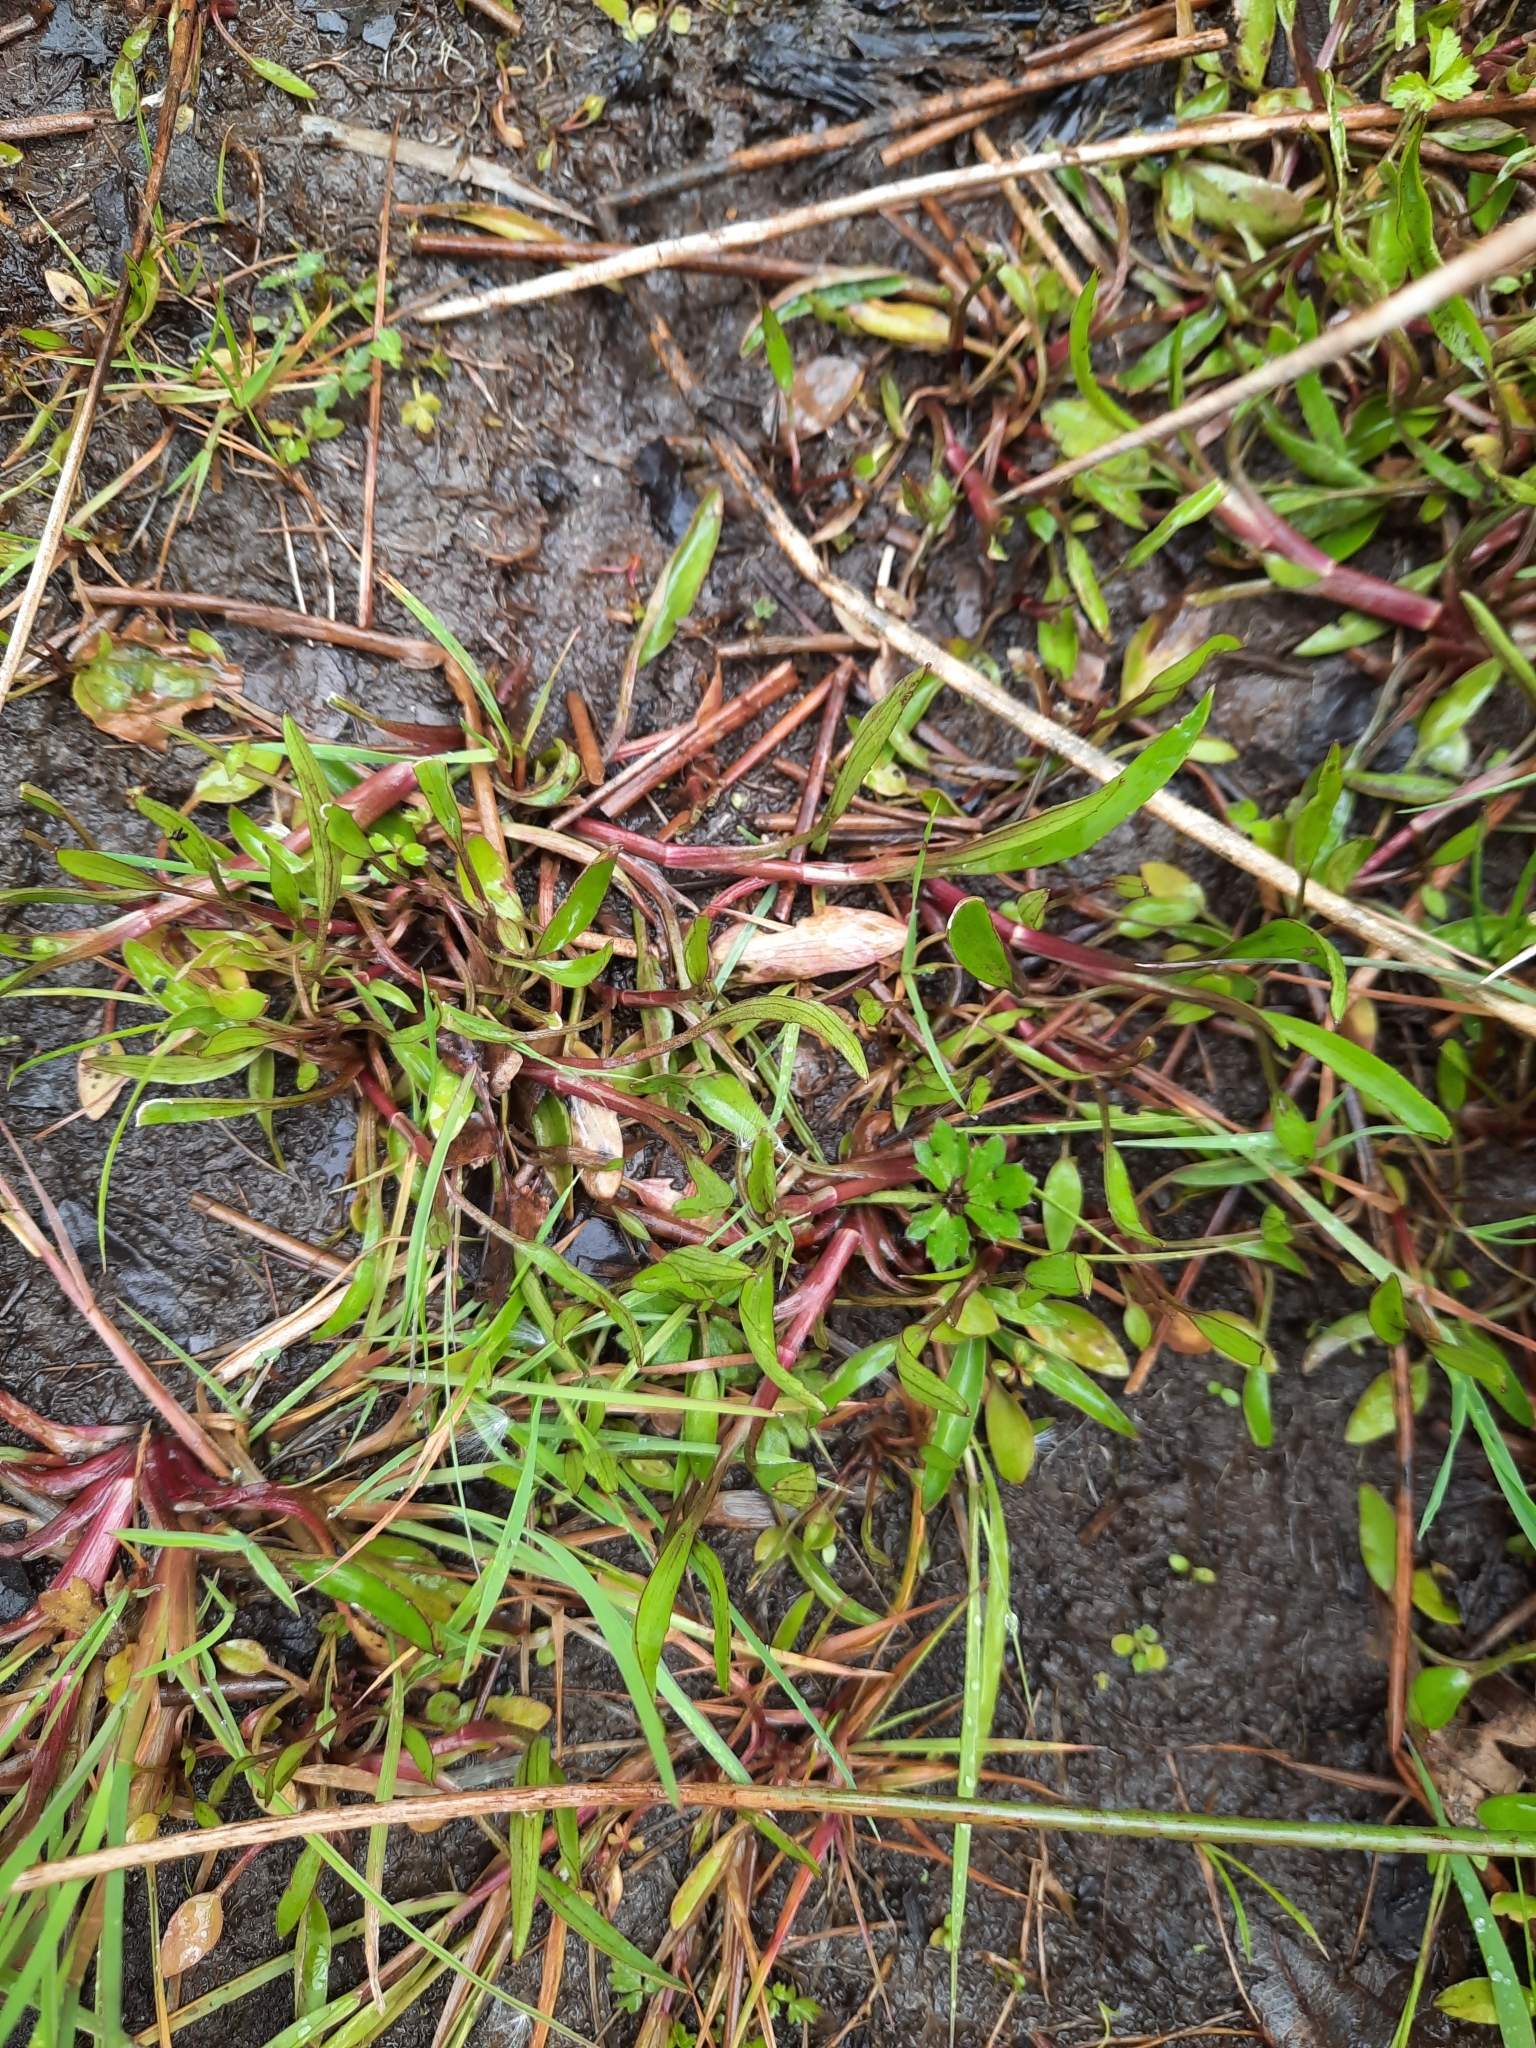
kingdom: Plantae
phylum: Tracheophyta
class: Magnoliopsida
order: Ranunculales
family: Ranunculaceae
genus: Ranunculus
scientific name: Ranunculus flammula
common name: Lesser spearwort
